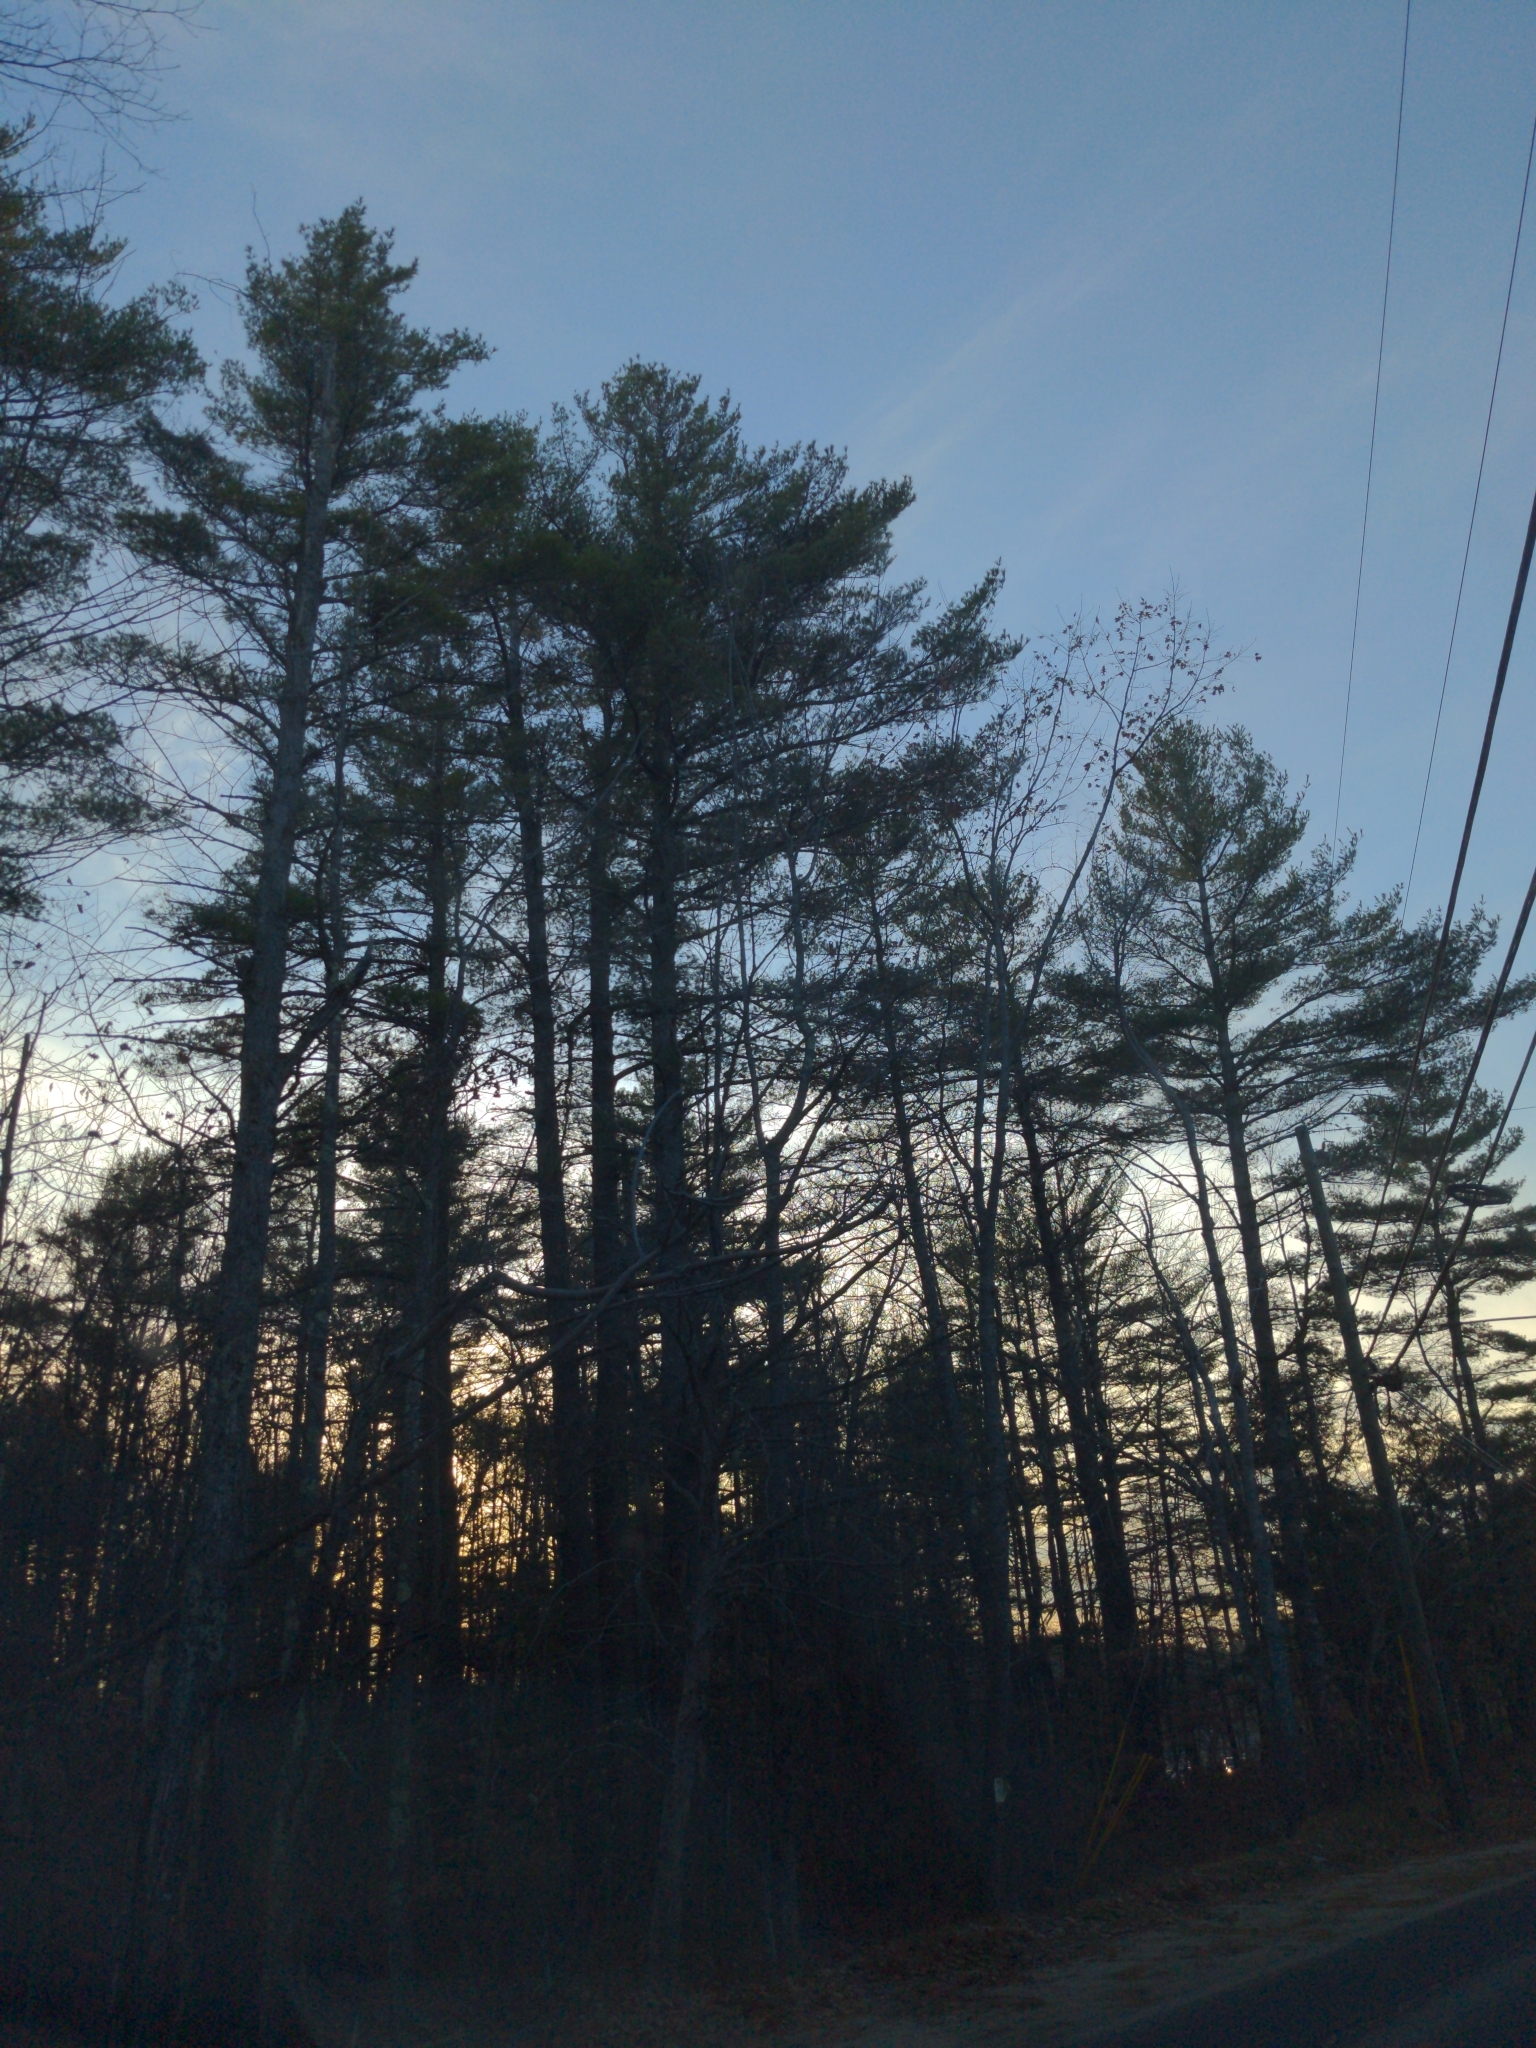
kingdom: Plantae
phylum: Tracheophyta
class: Pinopsida
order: Pinales
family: Pinaceae
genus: Pinus
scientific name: Pinus strobus
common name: Weymouth pine
